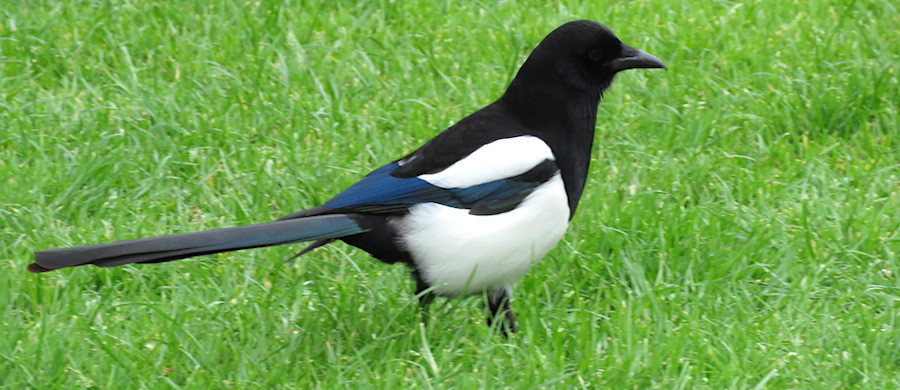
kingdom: Animalia
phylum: Chordata
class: Aves
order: Passeriformes
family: Corvidae
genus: Pica
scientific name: Pica pica
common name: Eurasian magpie
